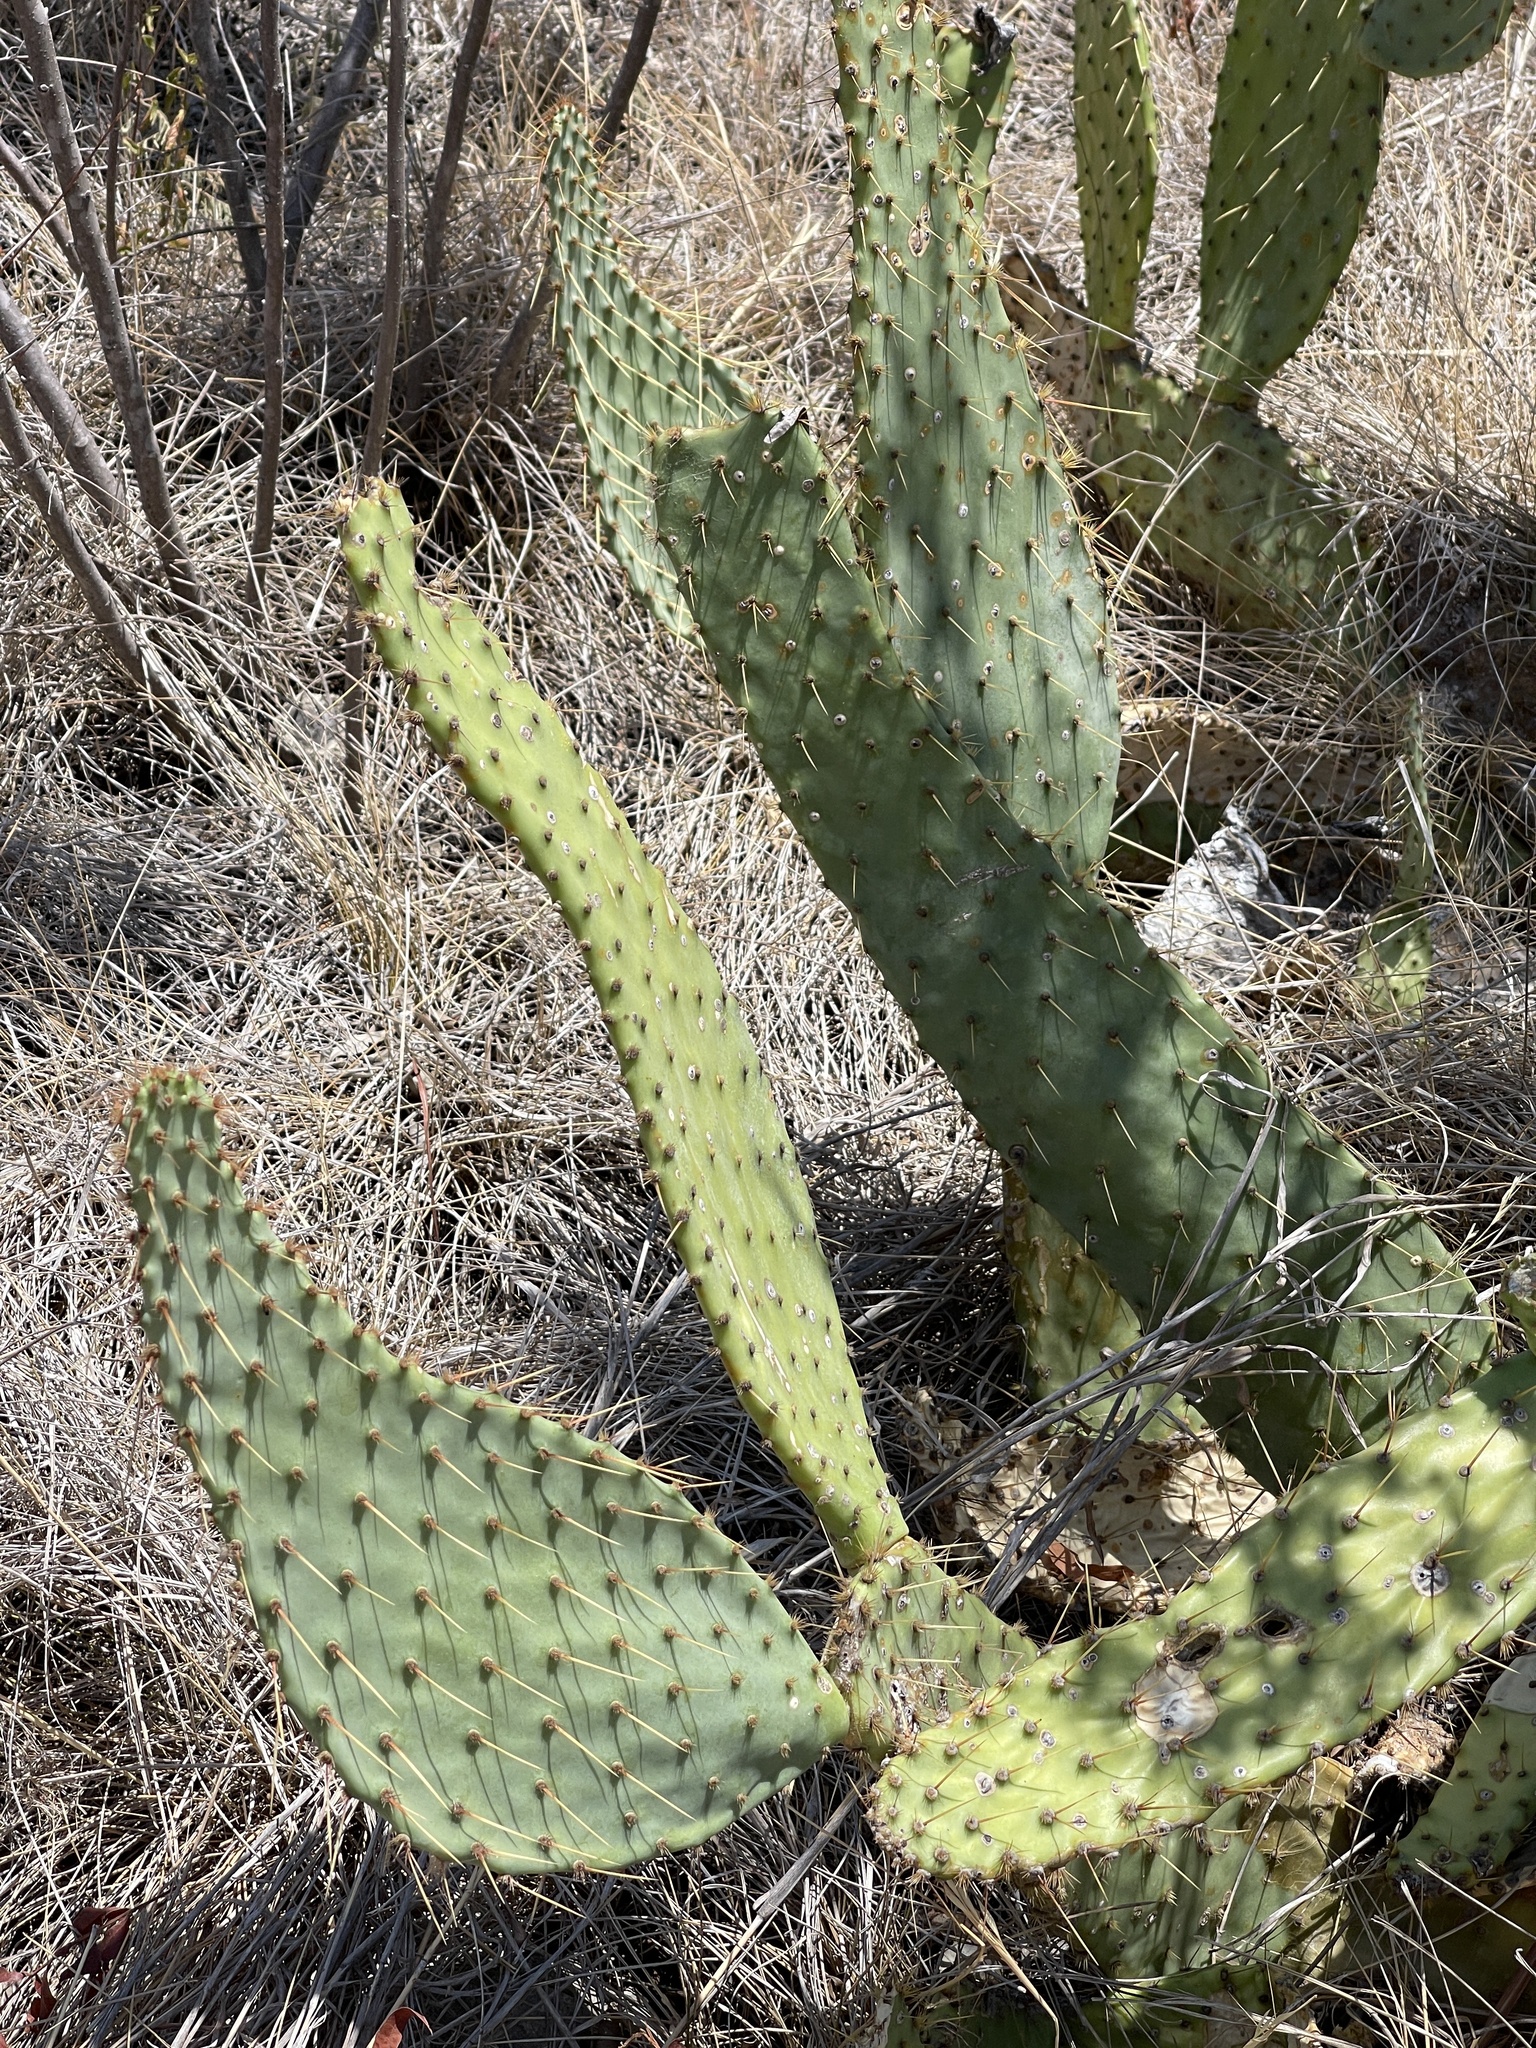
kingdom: Plantae
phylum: Tracheophyta
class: Magnoliopsida
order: Caryophyllales
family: Cactaceae
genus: Opuntia
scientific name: Opuntia engelmannii
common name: Cactus-apple
